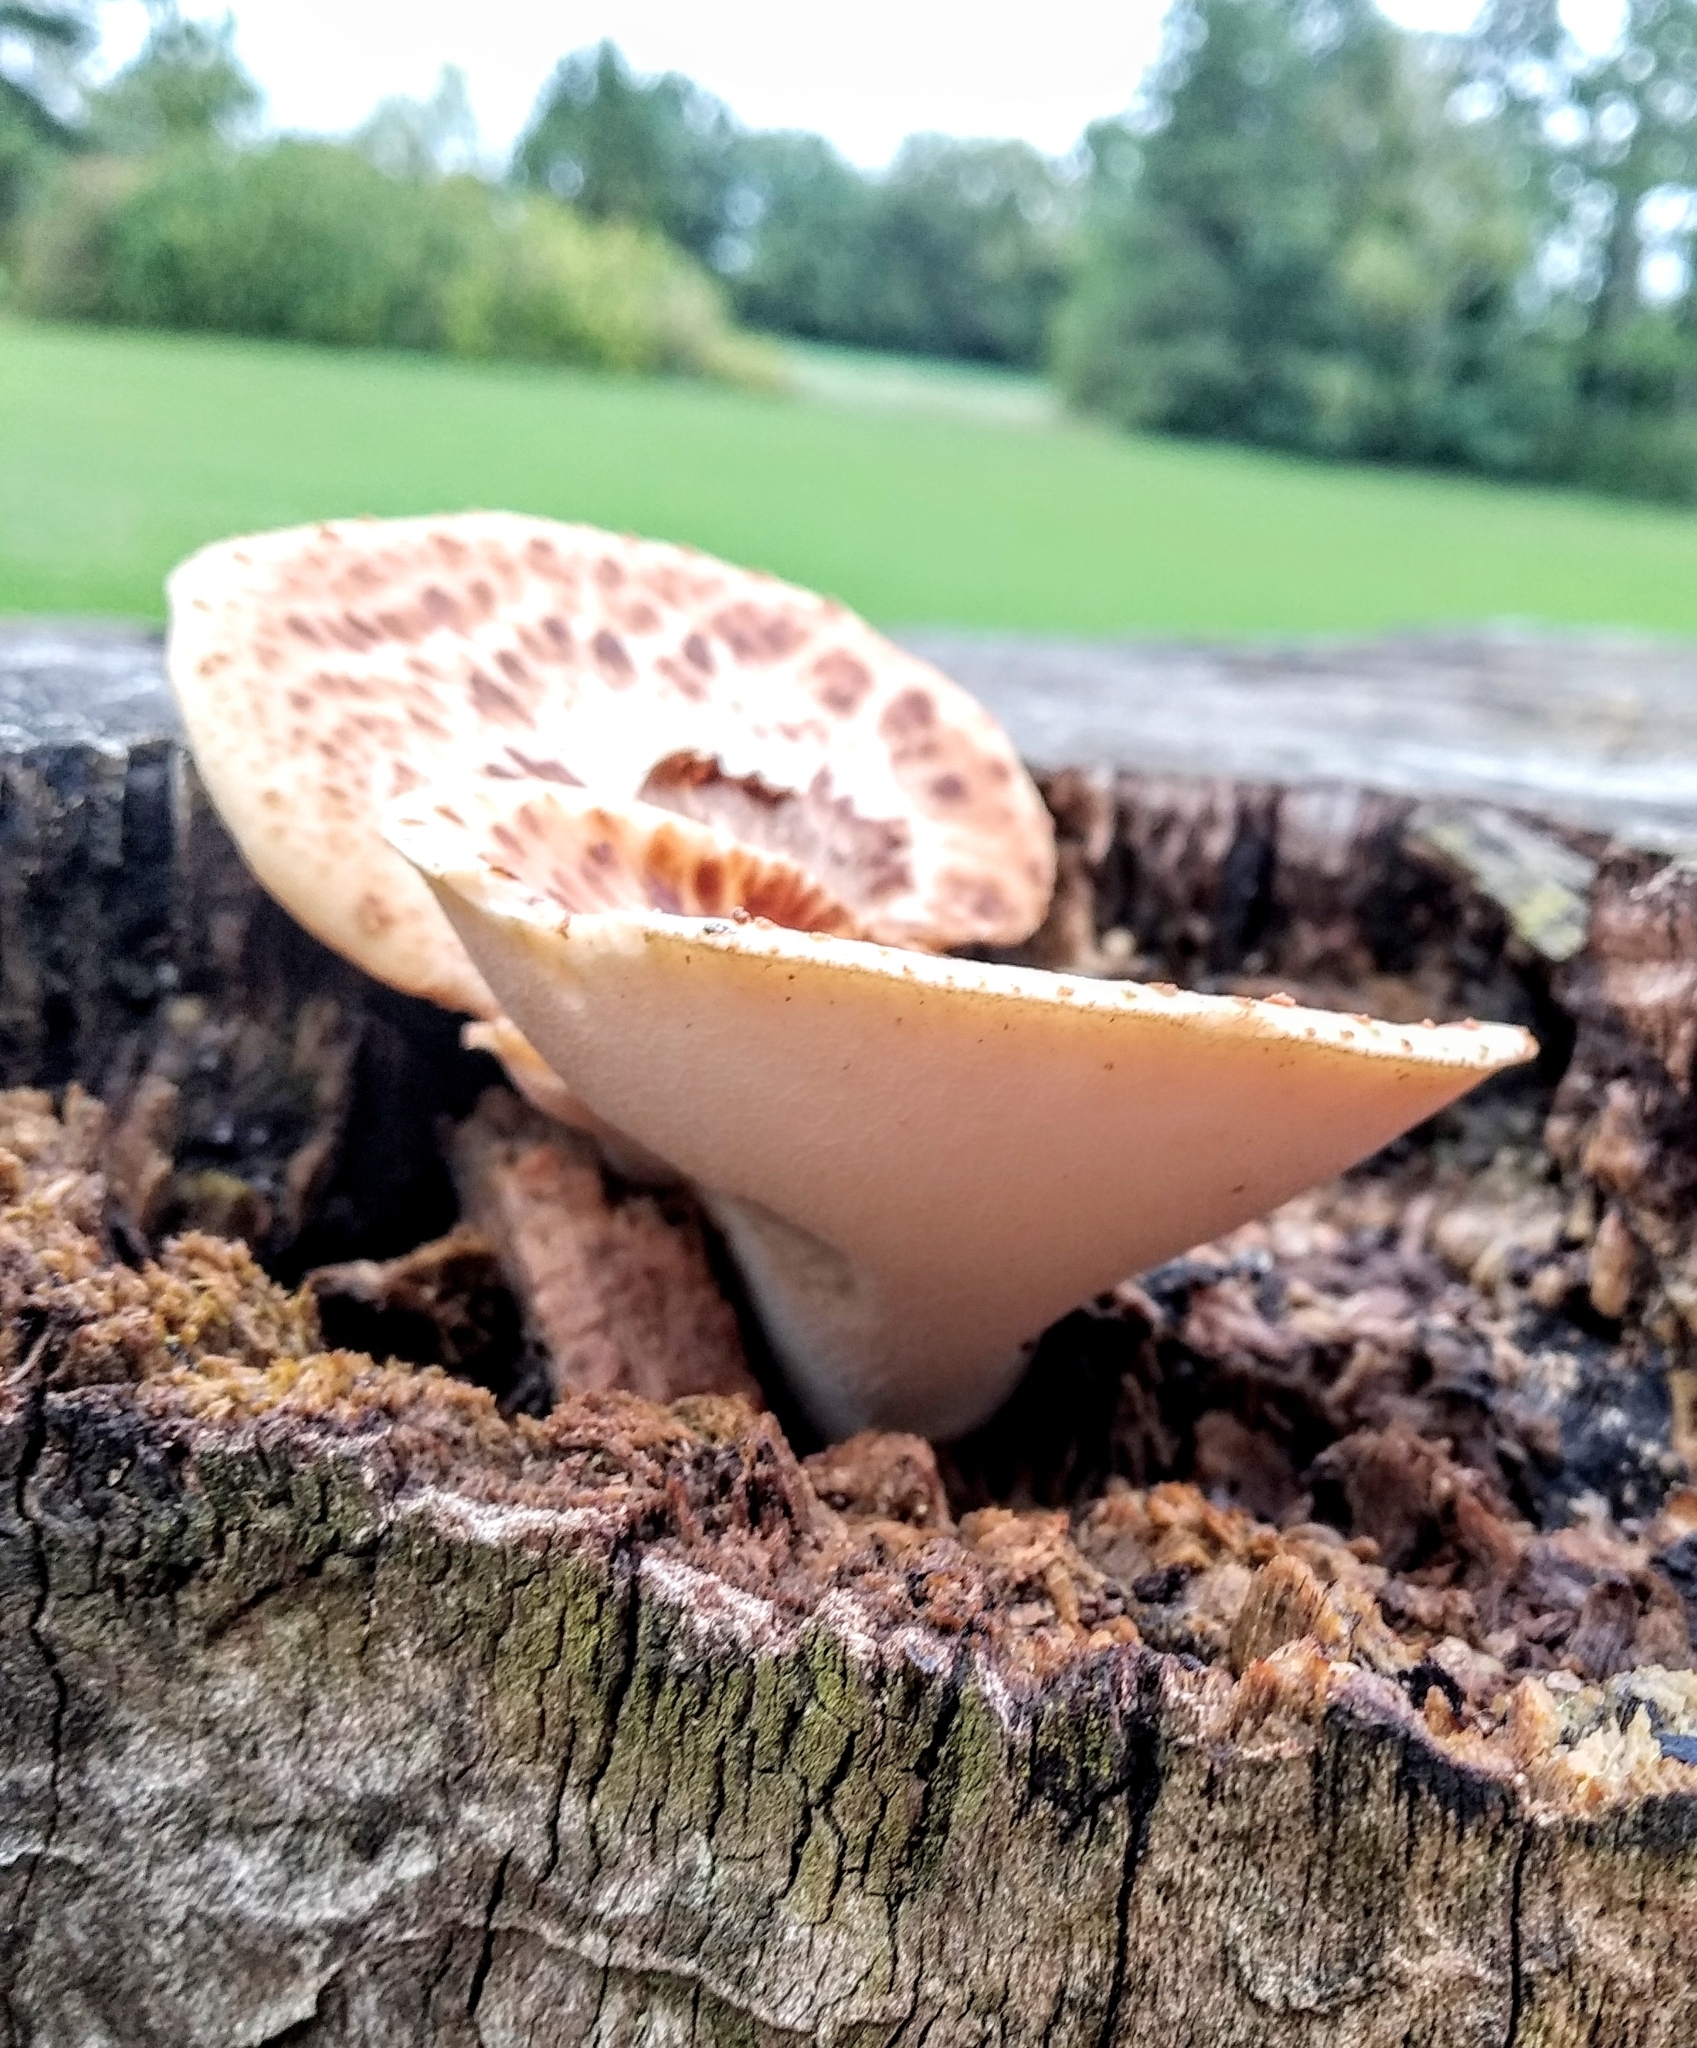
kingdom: Fungi
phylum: Basidiomycota
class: Agaricomycetes
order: Polyporales
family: Polyporaceae
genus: Cerioporus
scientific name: Cerioporus squamosus
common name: Dryad's saddle
